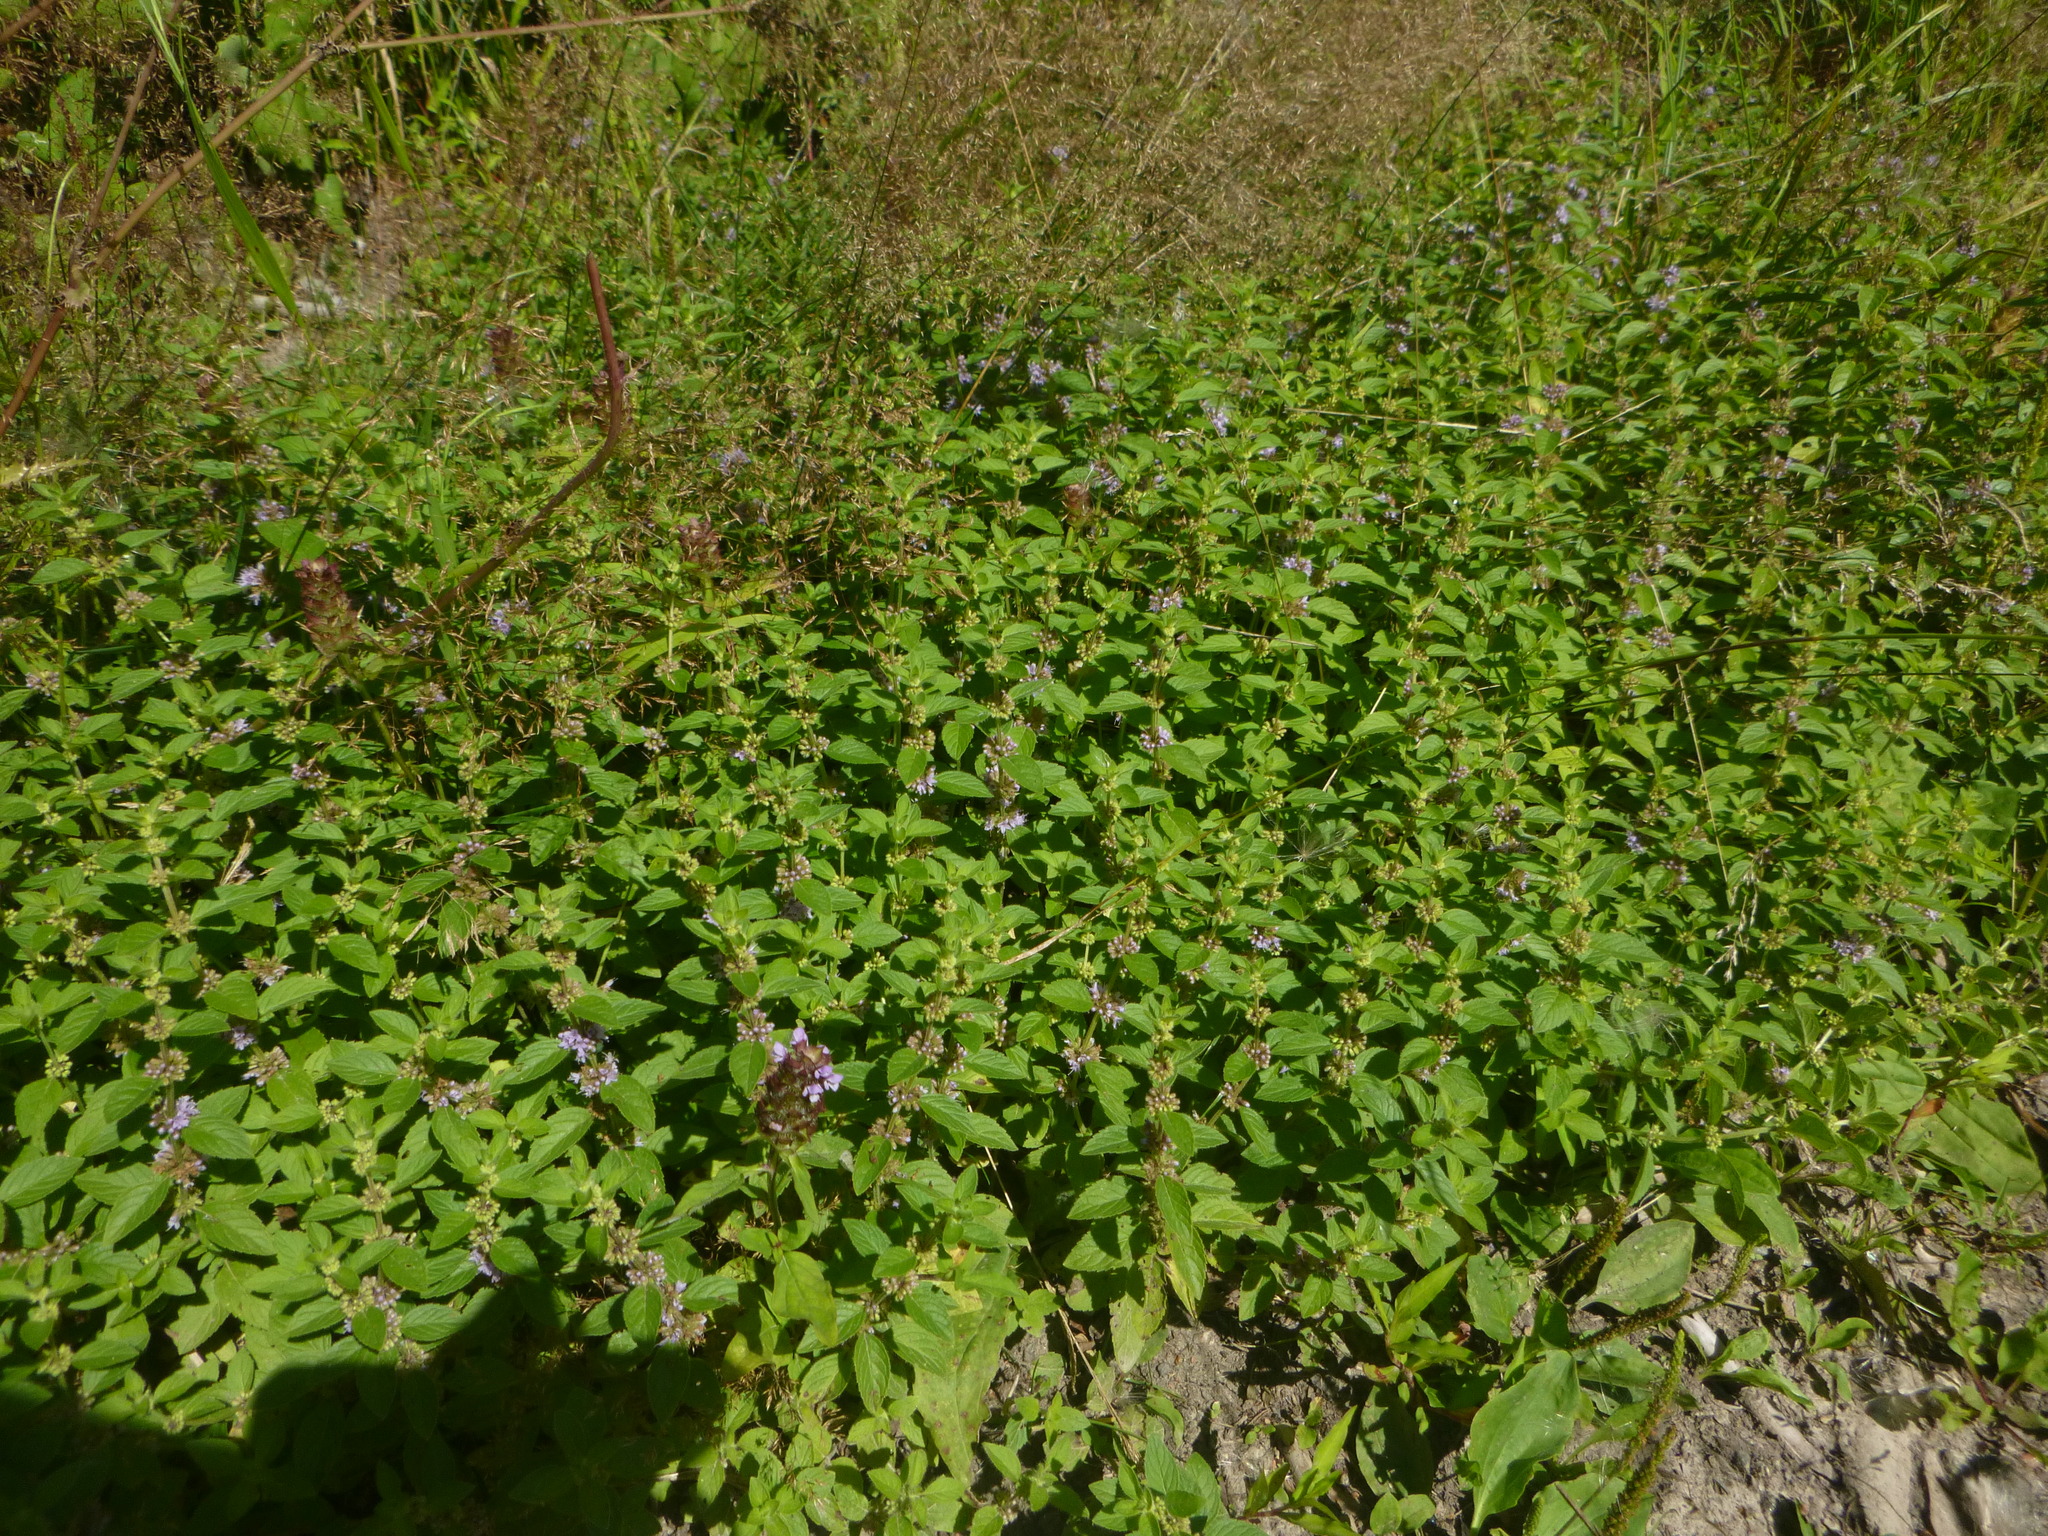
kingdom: Plantae
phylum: Tracheophyta
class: Magnoliopsida
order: Lamiales
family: Lamiaceae
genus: Mentha
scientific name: Mentha arvensis
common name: Corn mint
